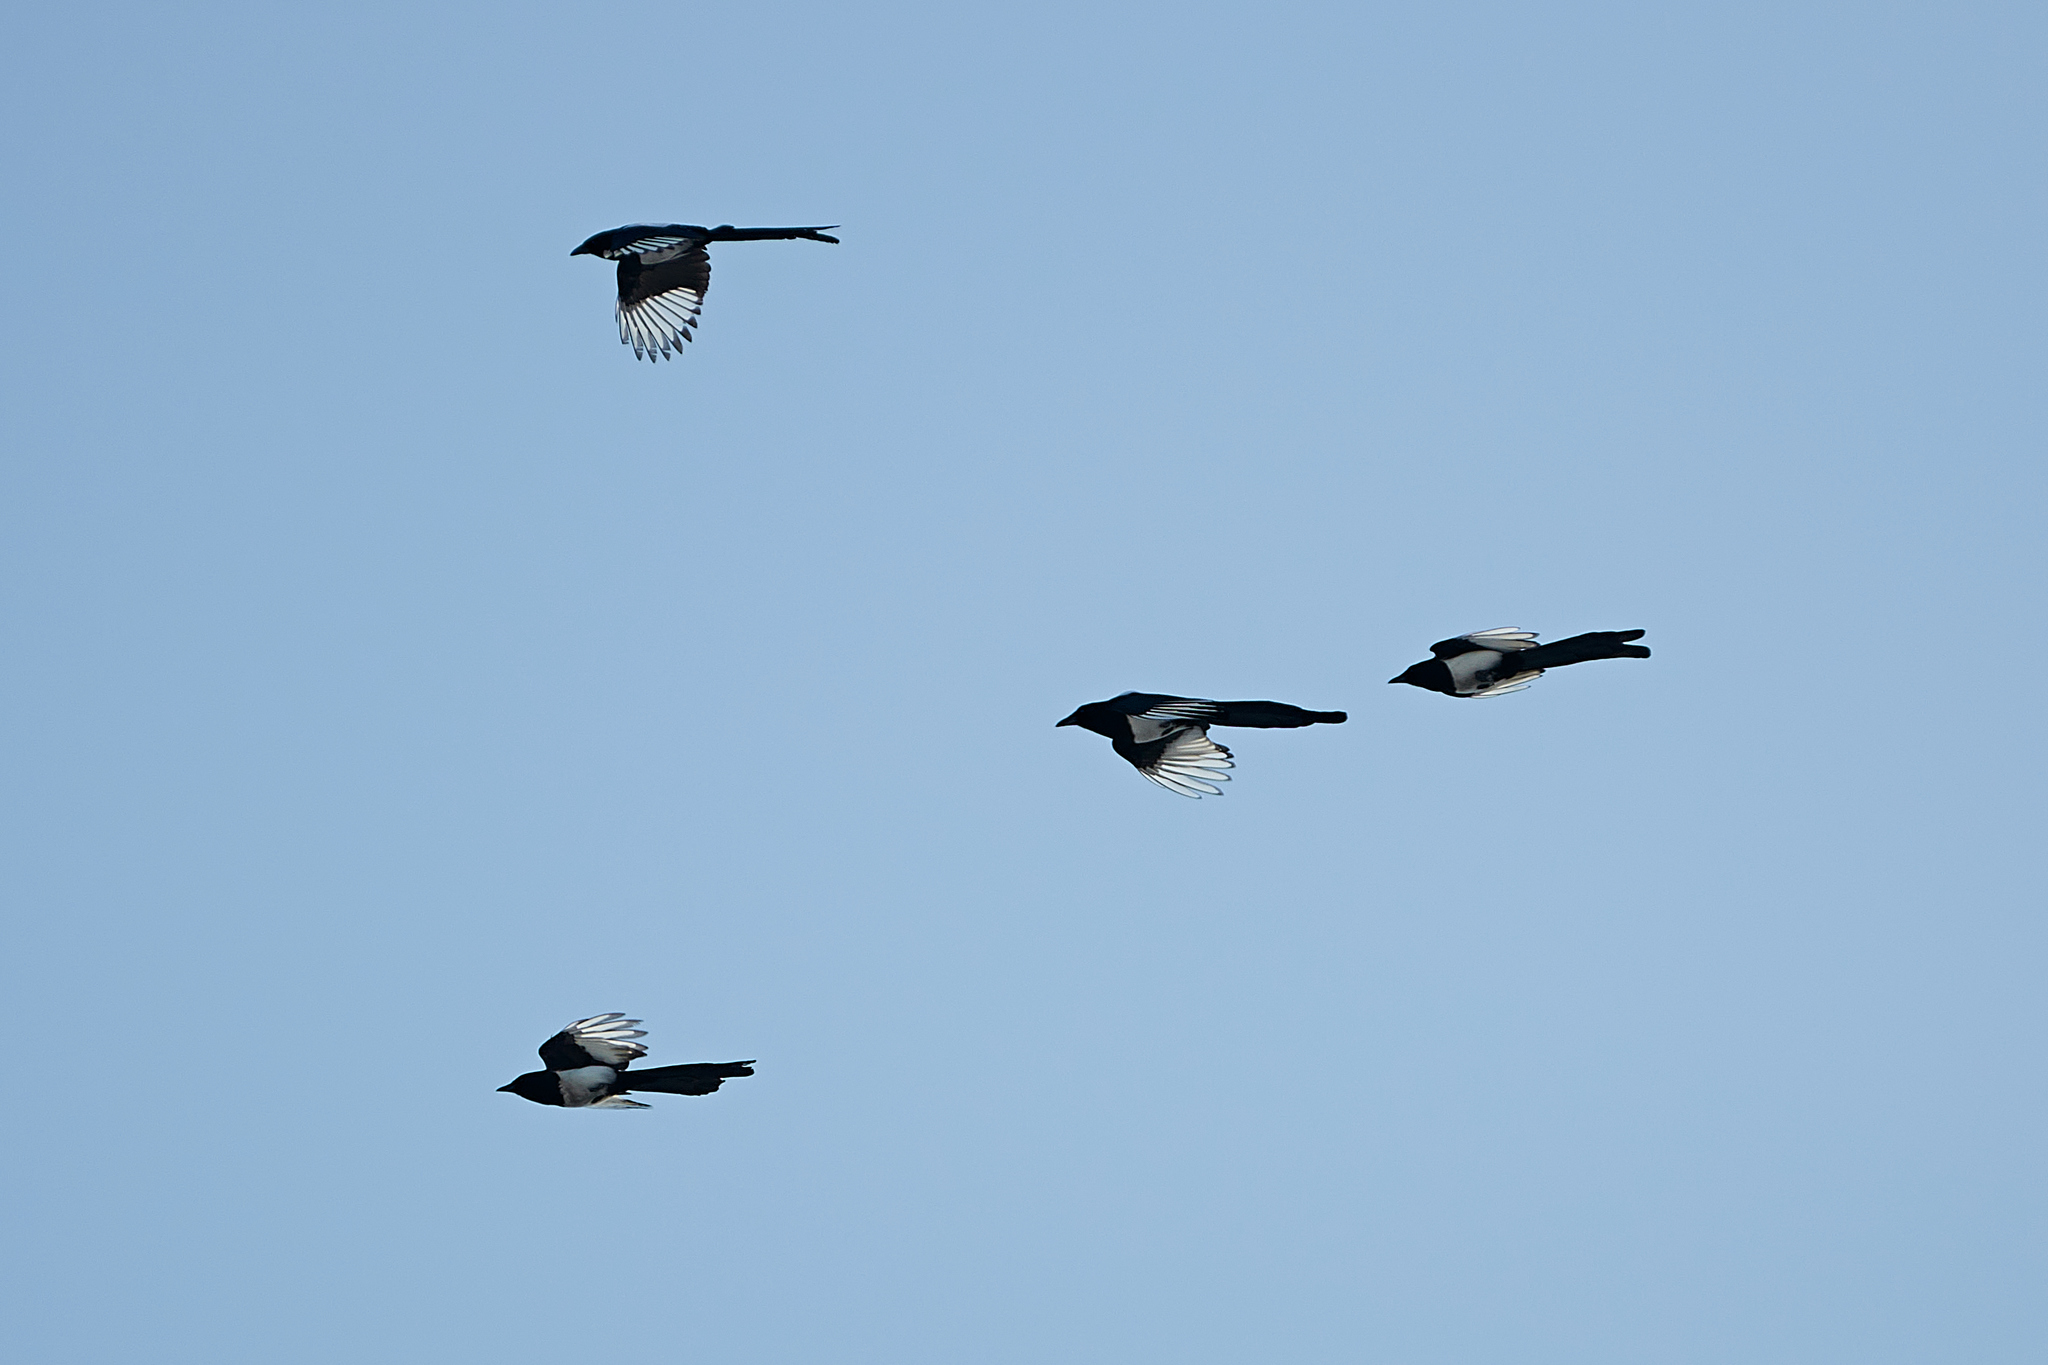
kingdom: Animalia
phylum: Chordata
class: Aves
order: Passeriformes
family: Corvidae
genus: Pica
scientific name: Pica pica
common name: Eurasian magpie
